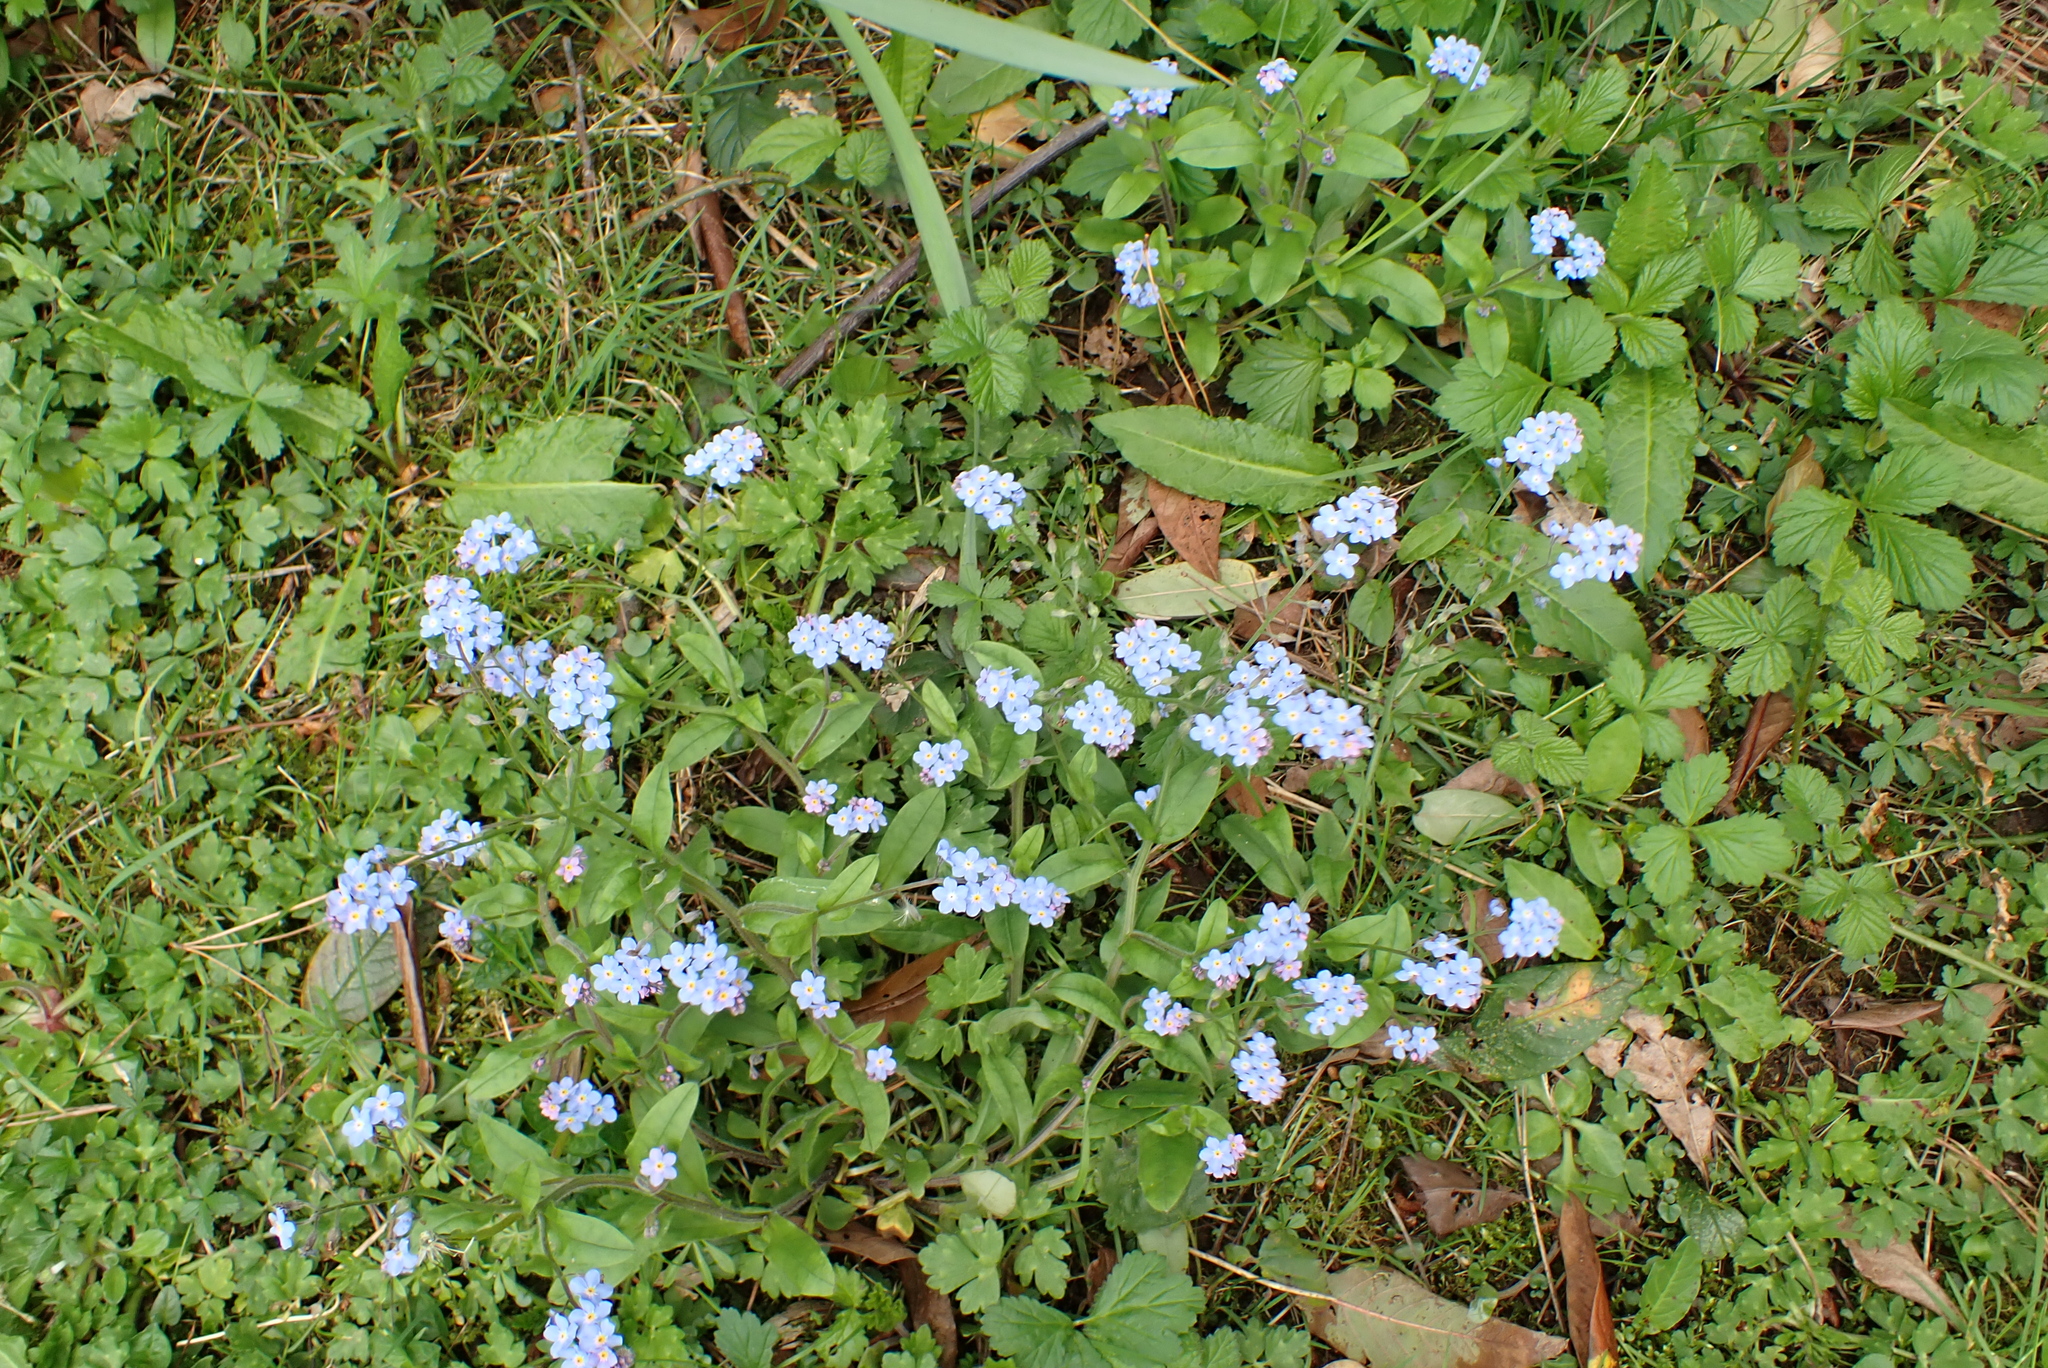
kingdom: Plantae
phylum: Tracheophyta
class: Magnoliopsida
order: Boraginales
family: Boraginaceae
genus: Myosotis
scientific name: Myosotis sylvatica
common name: Wood forget-me-not
